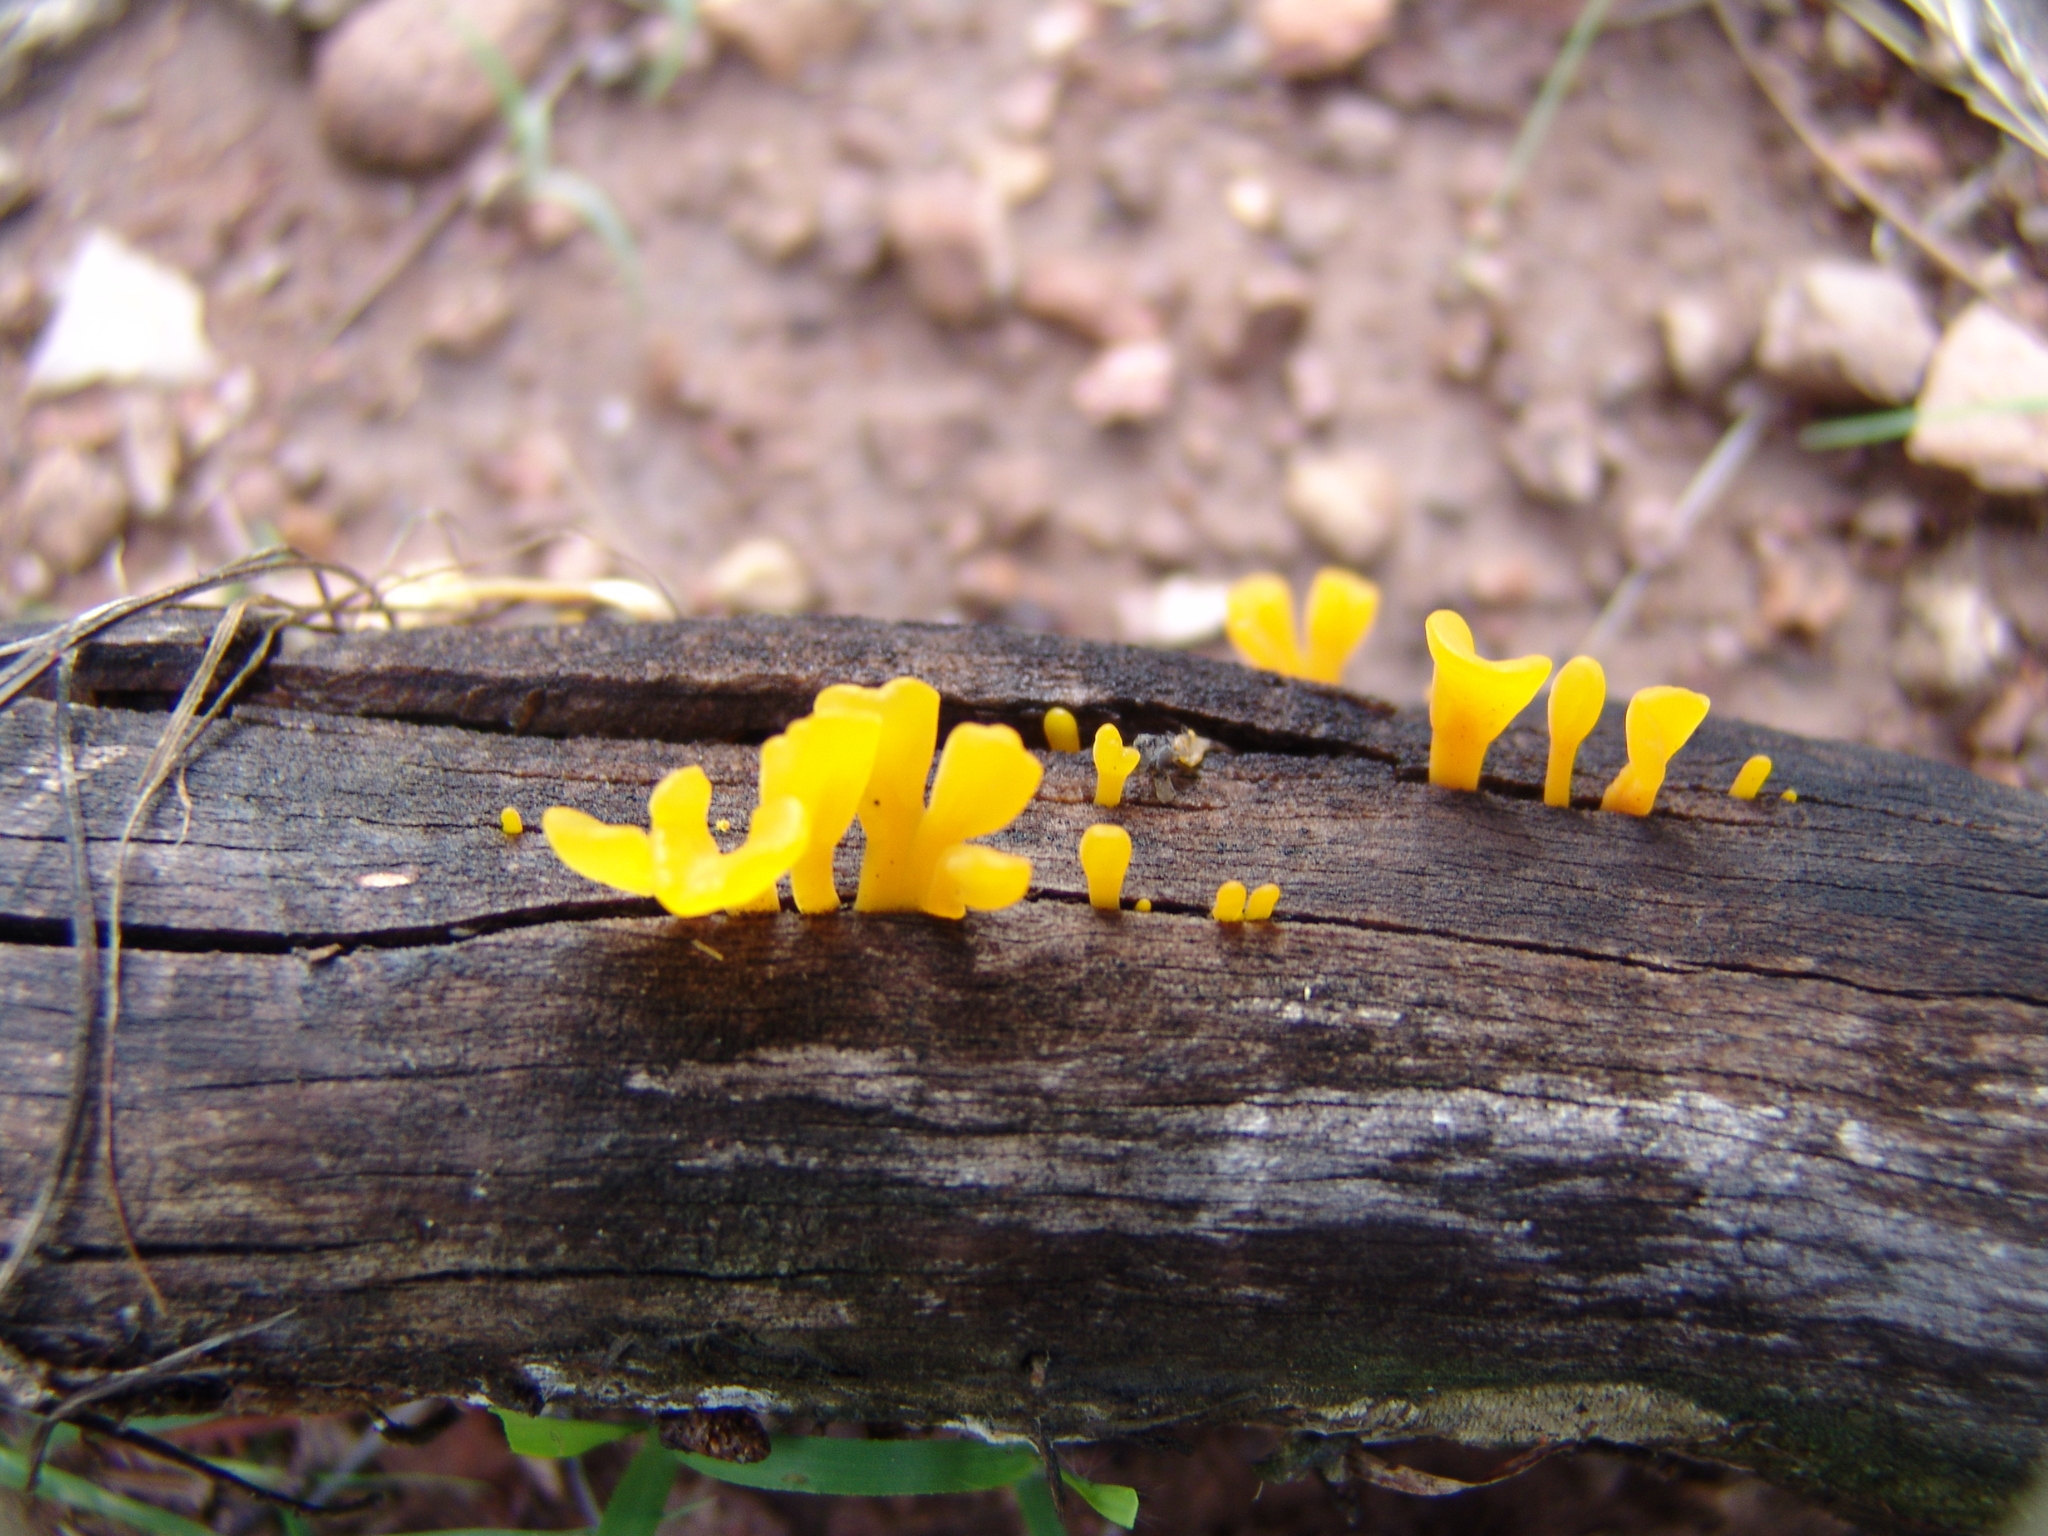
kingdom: Fungi
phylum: Basidiomycota
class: Dacrymycetes
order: Dacrymycetales
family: Dacrymycetaceae
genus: Dacrymyces
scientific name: Dacrymyces spathularius
